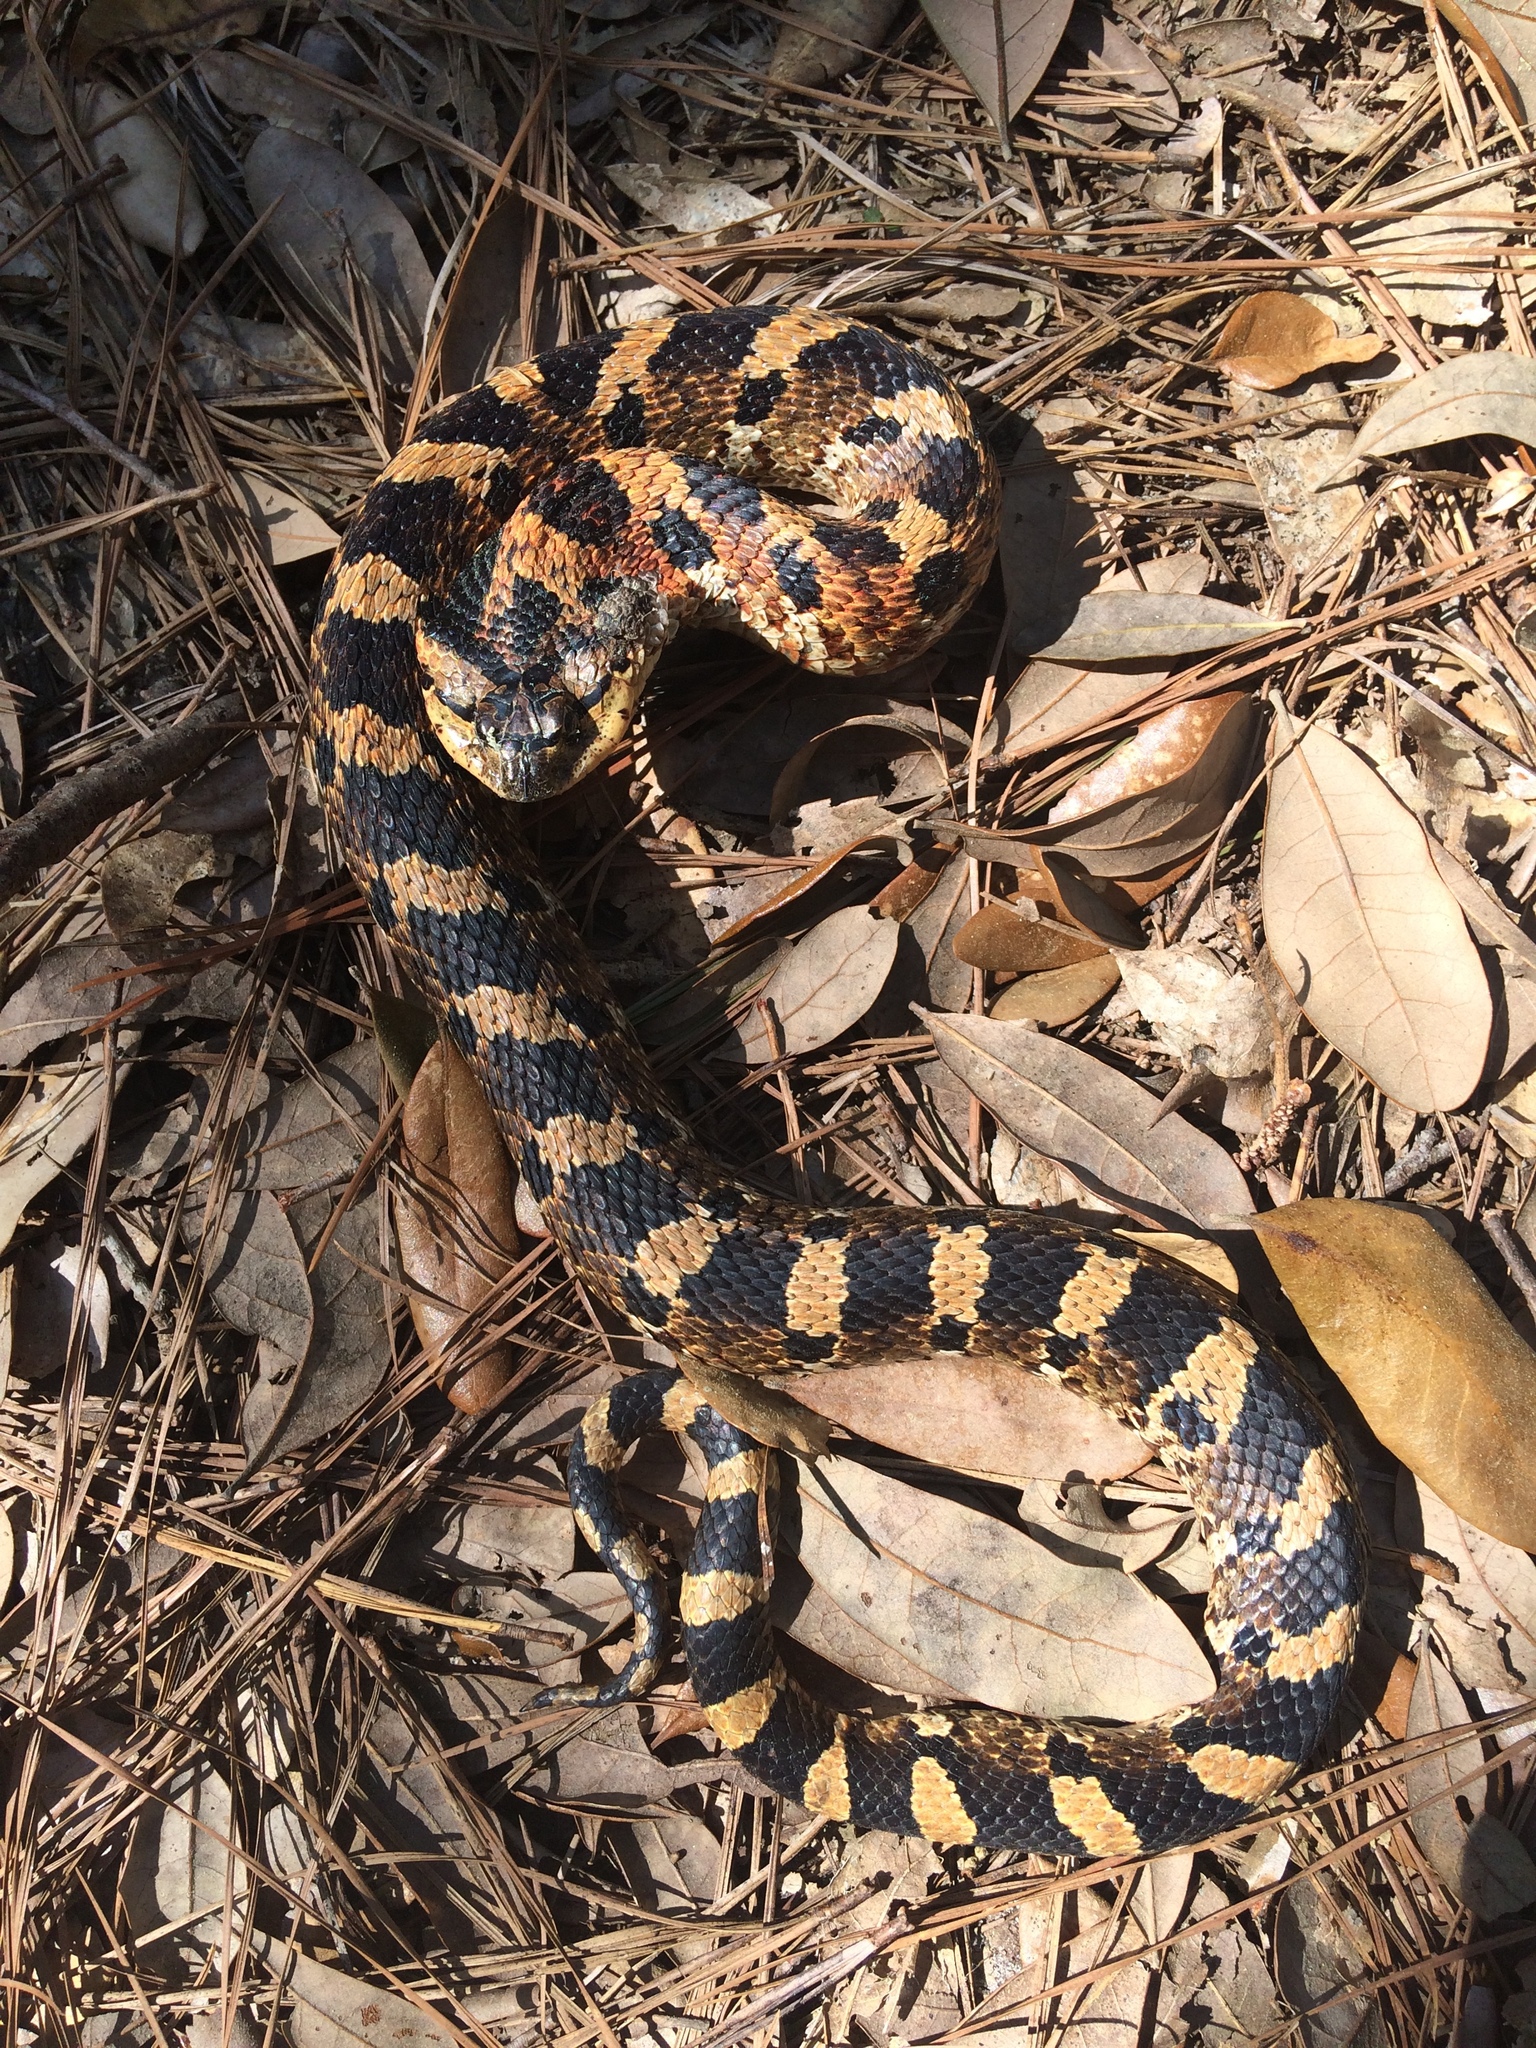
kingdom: Animalia
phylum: Chordata
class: Squamata
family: Colubridae
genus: Heterodon
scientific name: Heterodon platirhinos
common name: Eastern hognose snake
